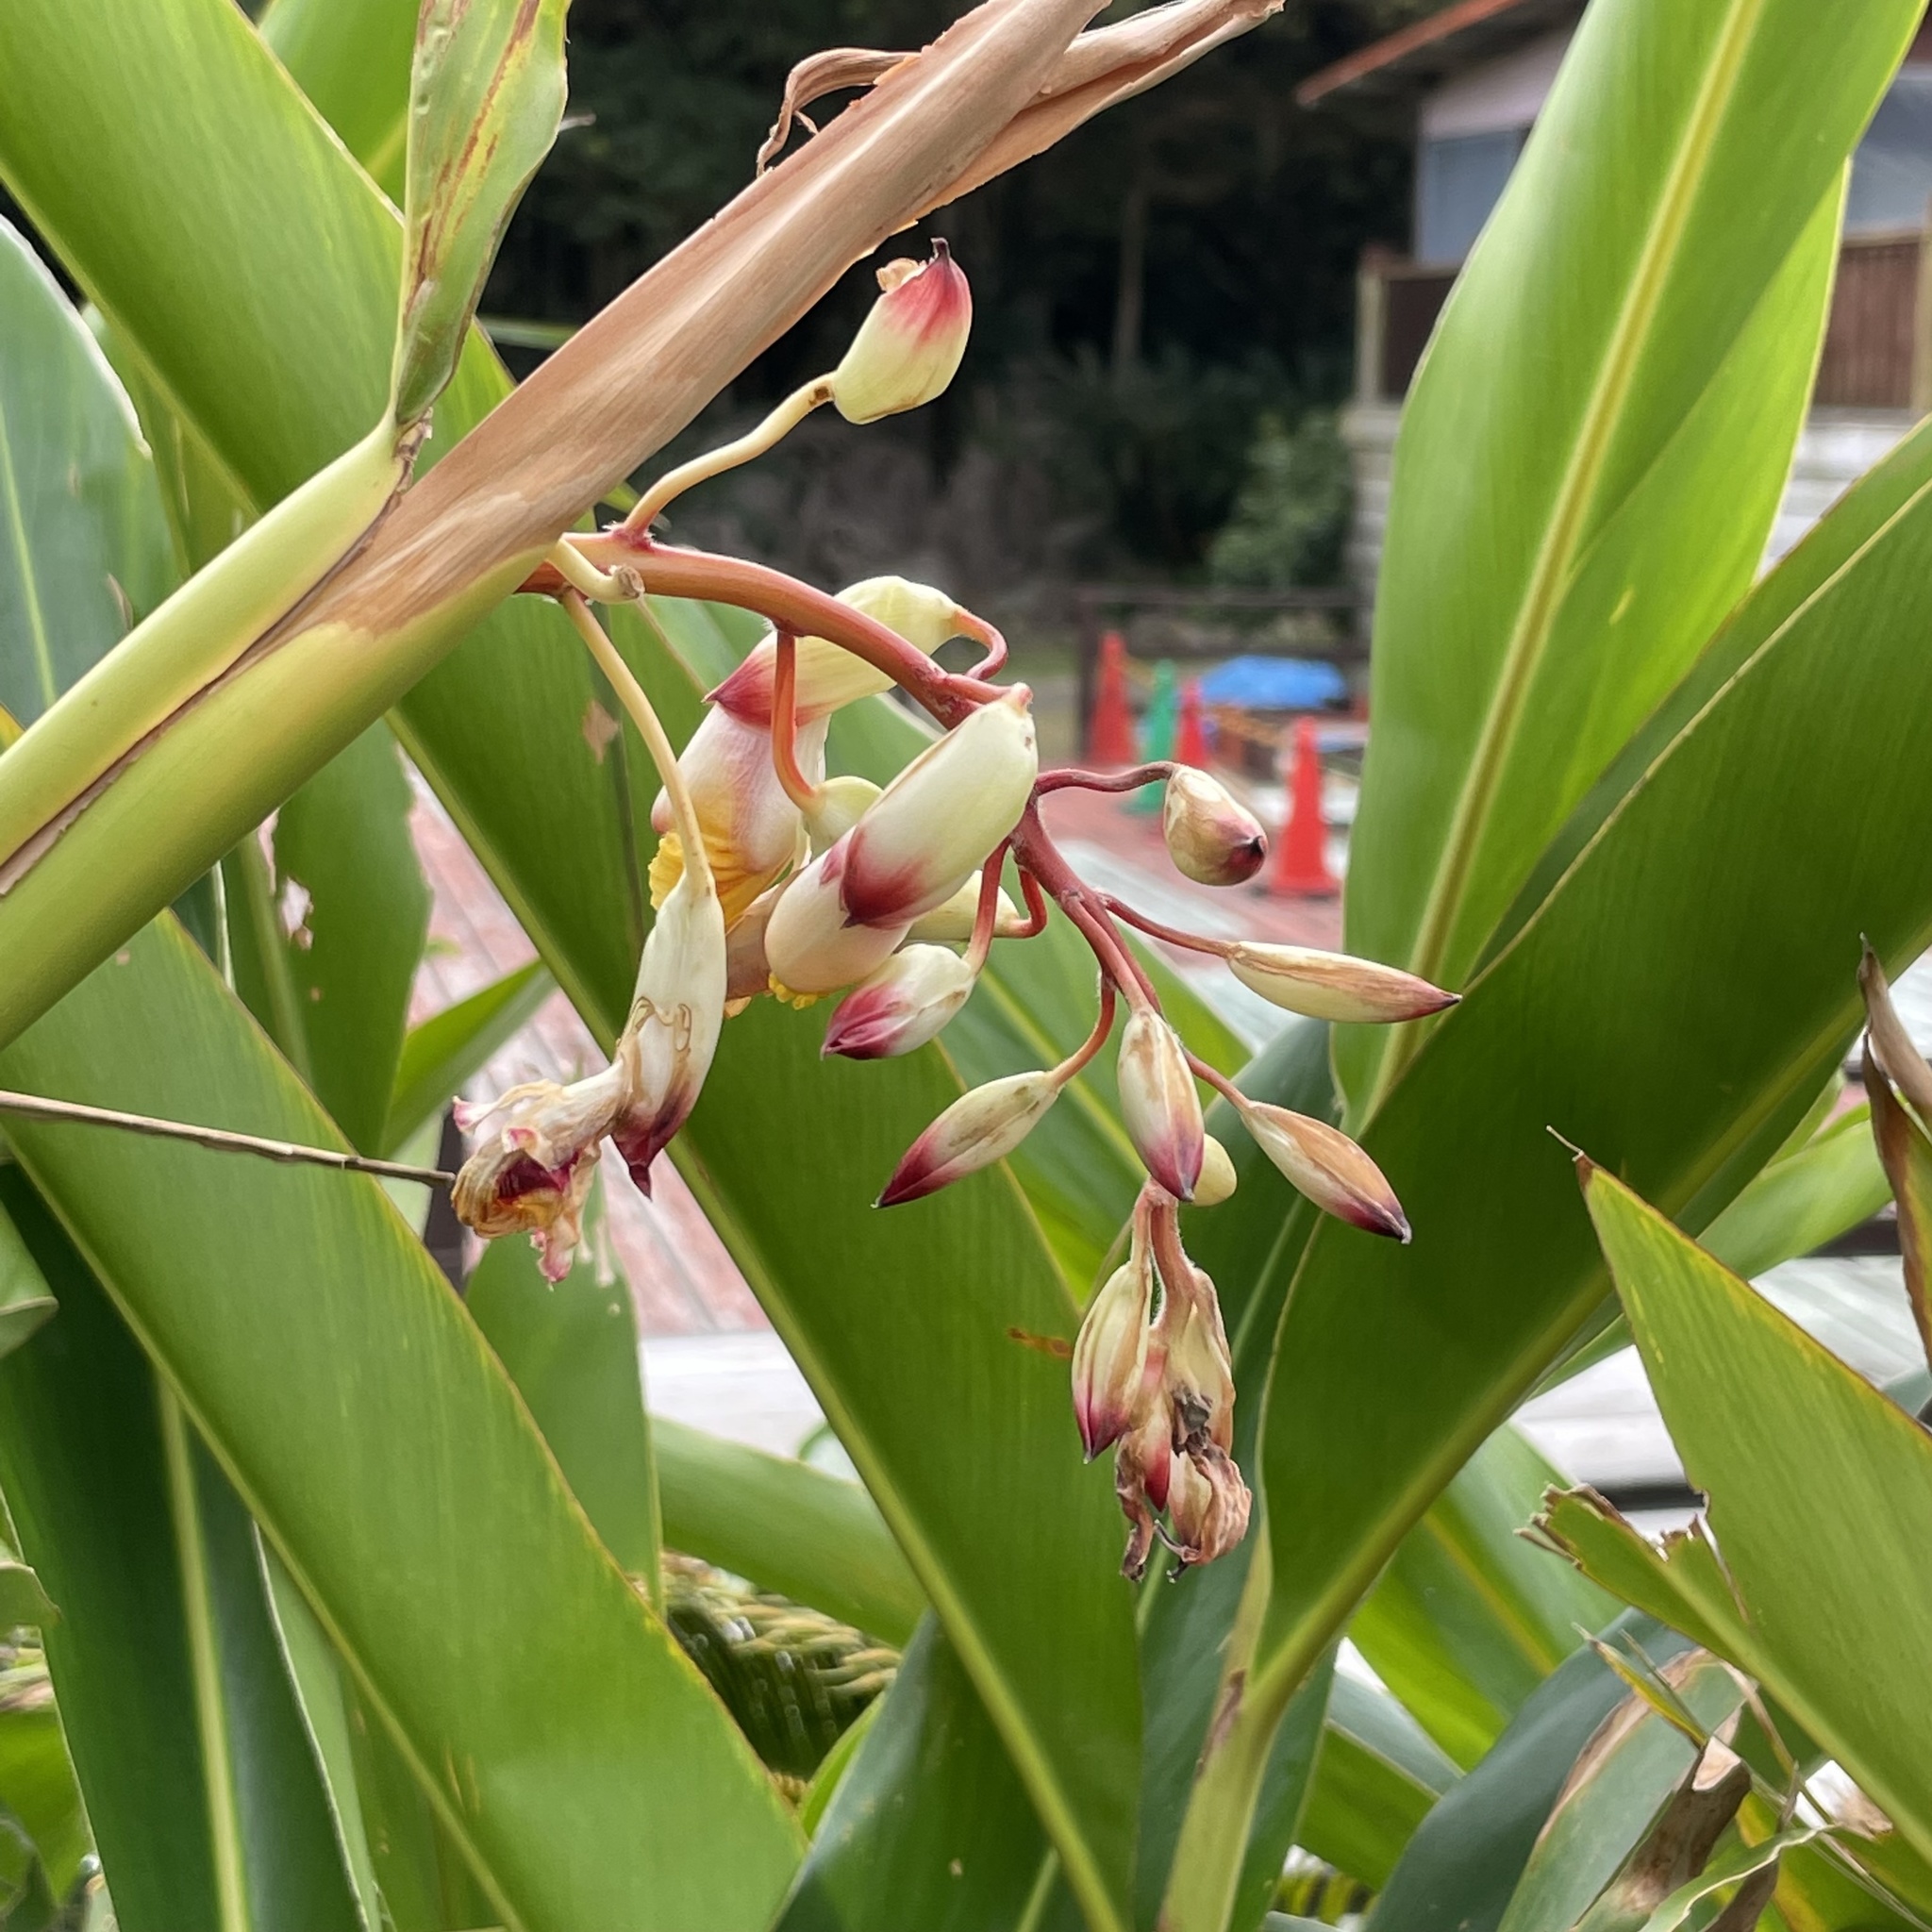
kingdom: Plantae
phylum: Tracheophyta
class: Liliopsida
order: Zingiberales
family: Zingiberaceae
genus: Alpinia
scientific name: Alpinia zerumbet
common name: Shellplant
